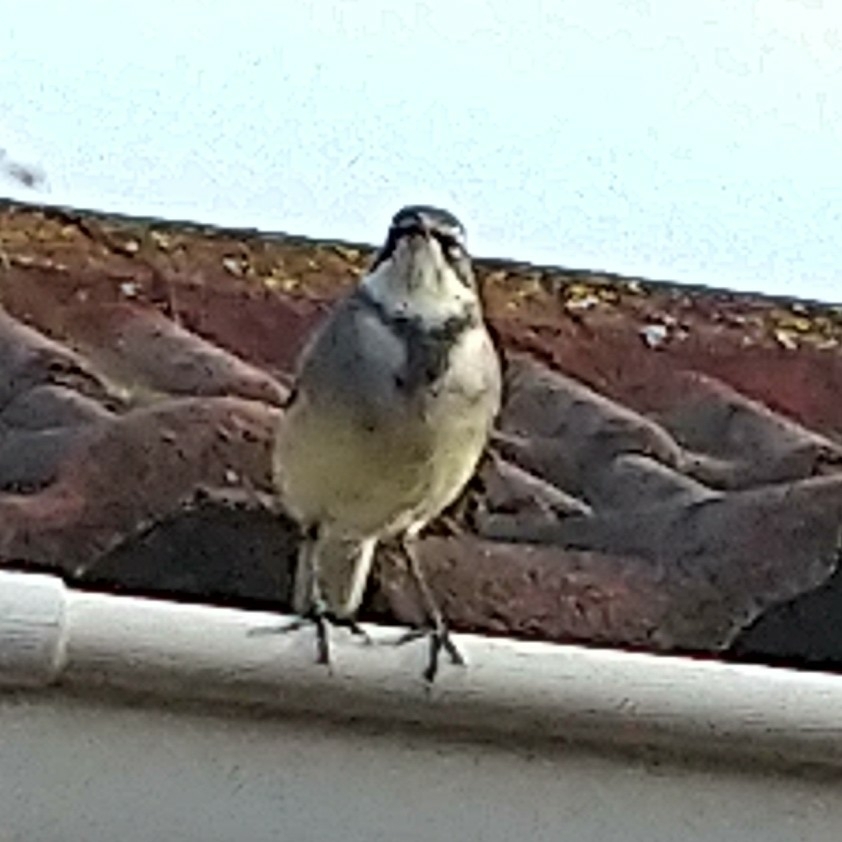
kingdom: Animalia
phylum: Chordata
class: Aves
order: Passeriformes
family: Motacillidae
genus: Motacilla
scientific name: Motacilla capensis
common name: Cape wagtail
